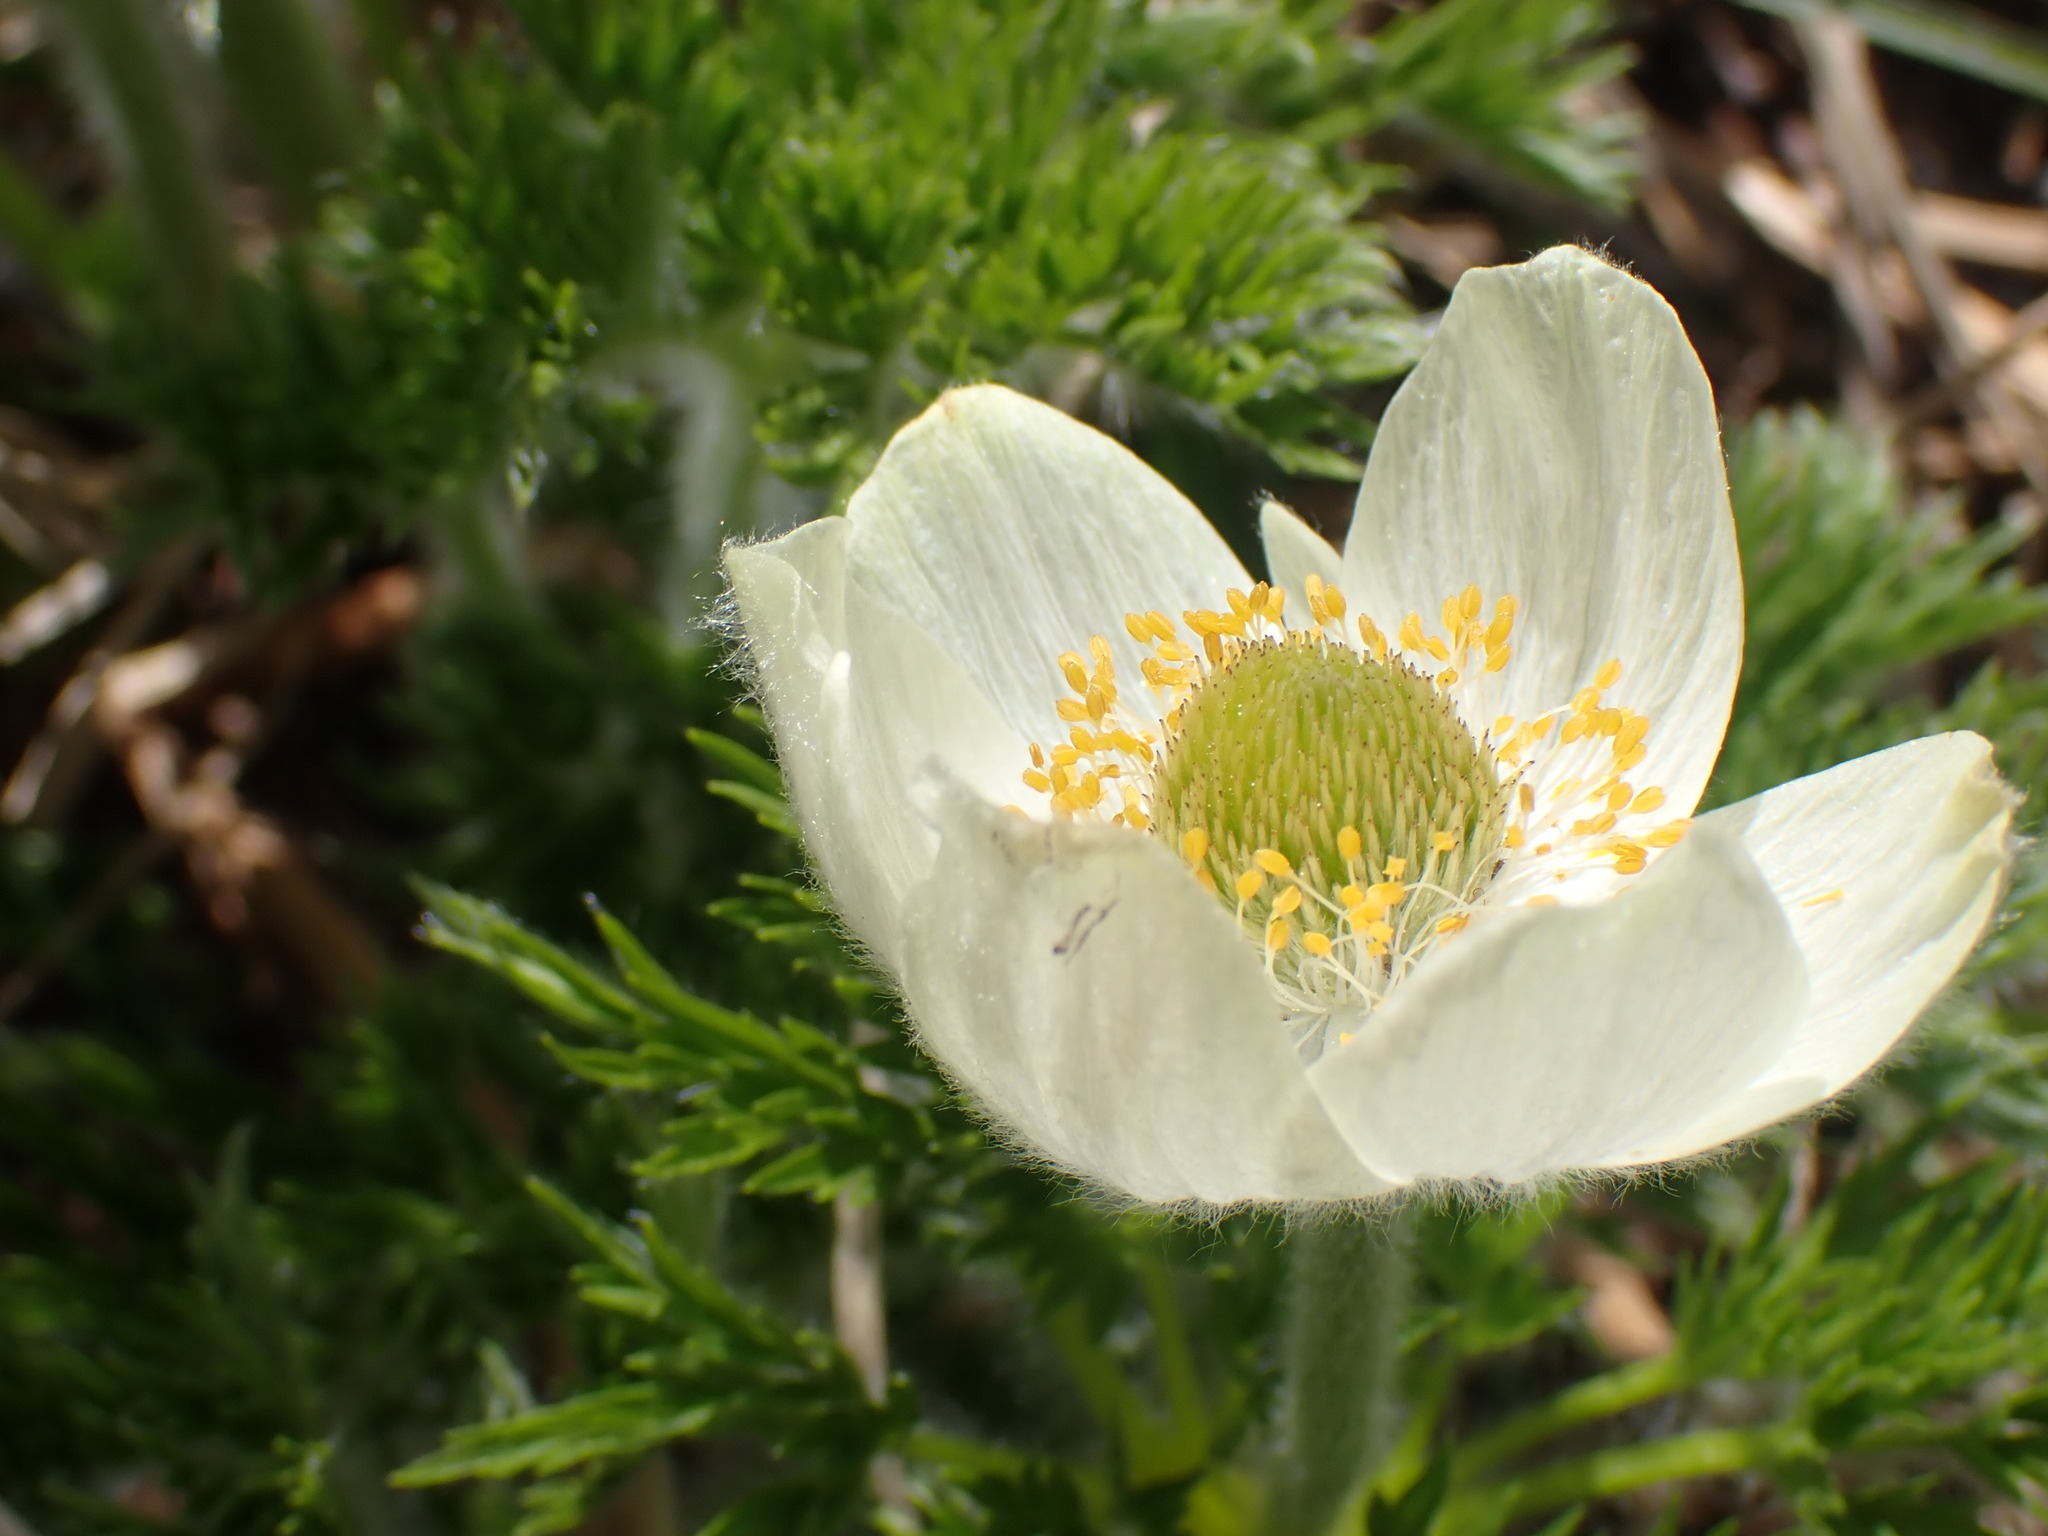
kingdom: Plantae
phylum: Tracheophyta
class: Magnoliopsida
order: Ranunculales
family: Ranunculaceae
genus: Pulsatilla
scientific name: Pulsatilla occidentalis
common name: Mountain pasqueflower
